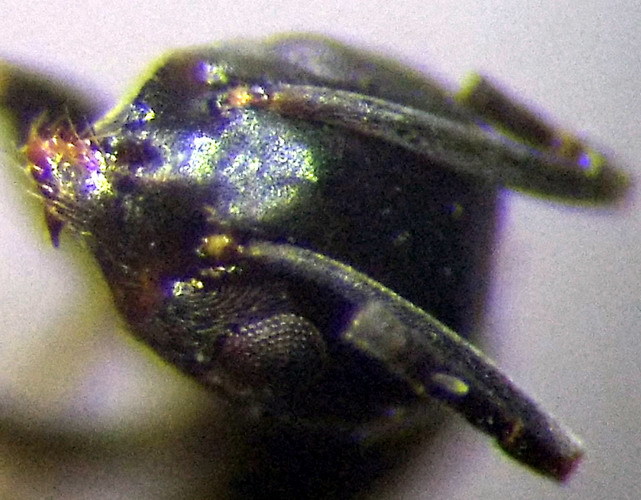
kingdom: Animalia
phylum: Arthropoda
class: Insecta
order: Hymenoptera
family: Formicidae
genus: Tapinoma
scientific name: Tapinoma erraticum
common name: Erratic ant
